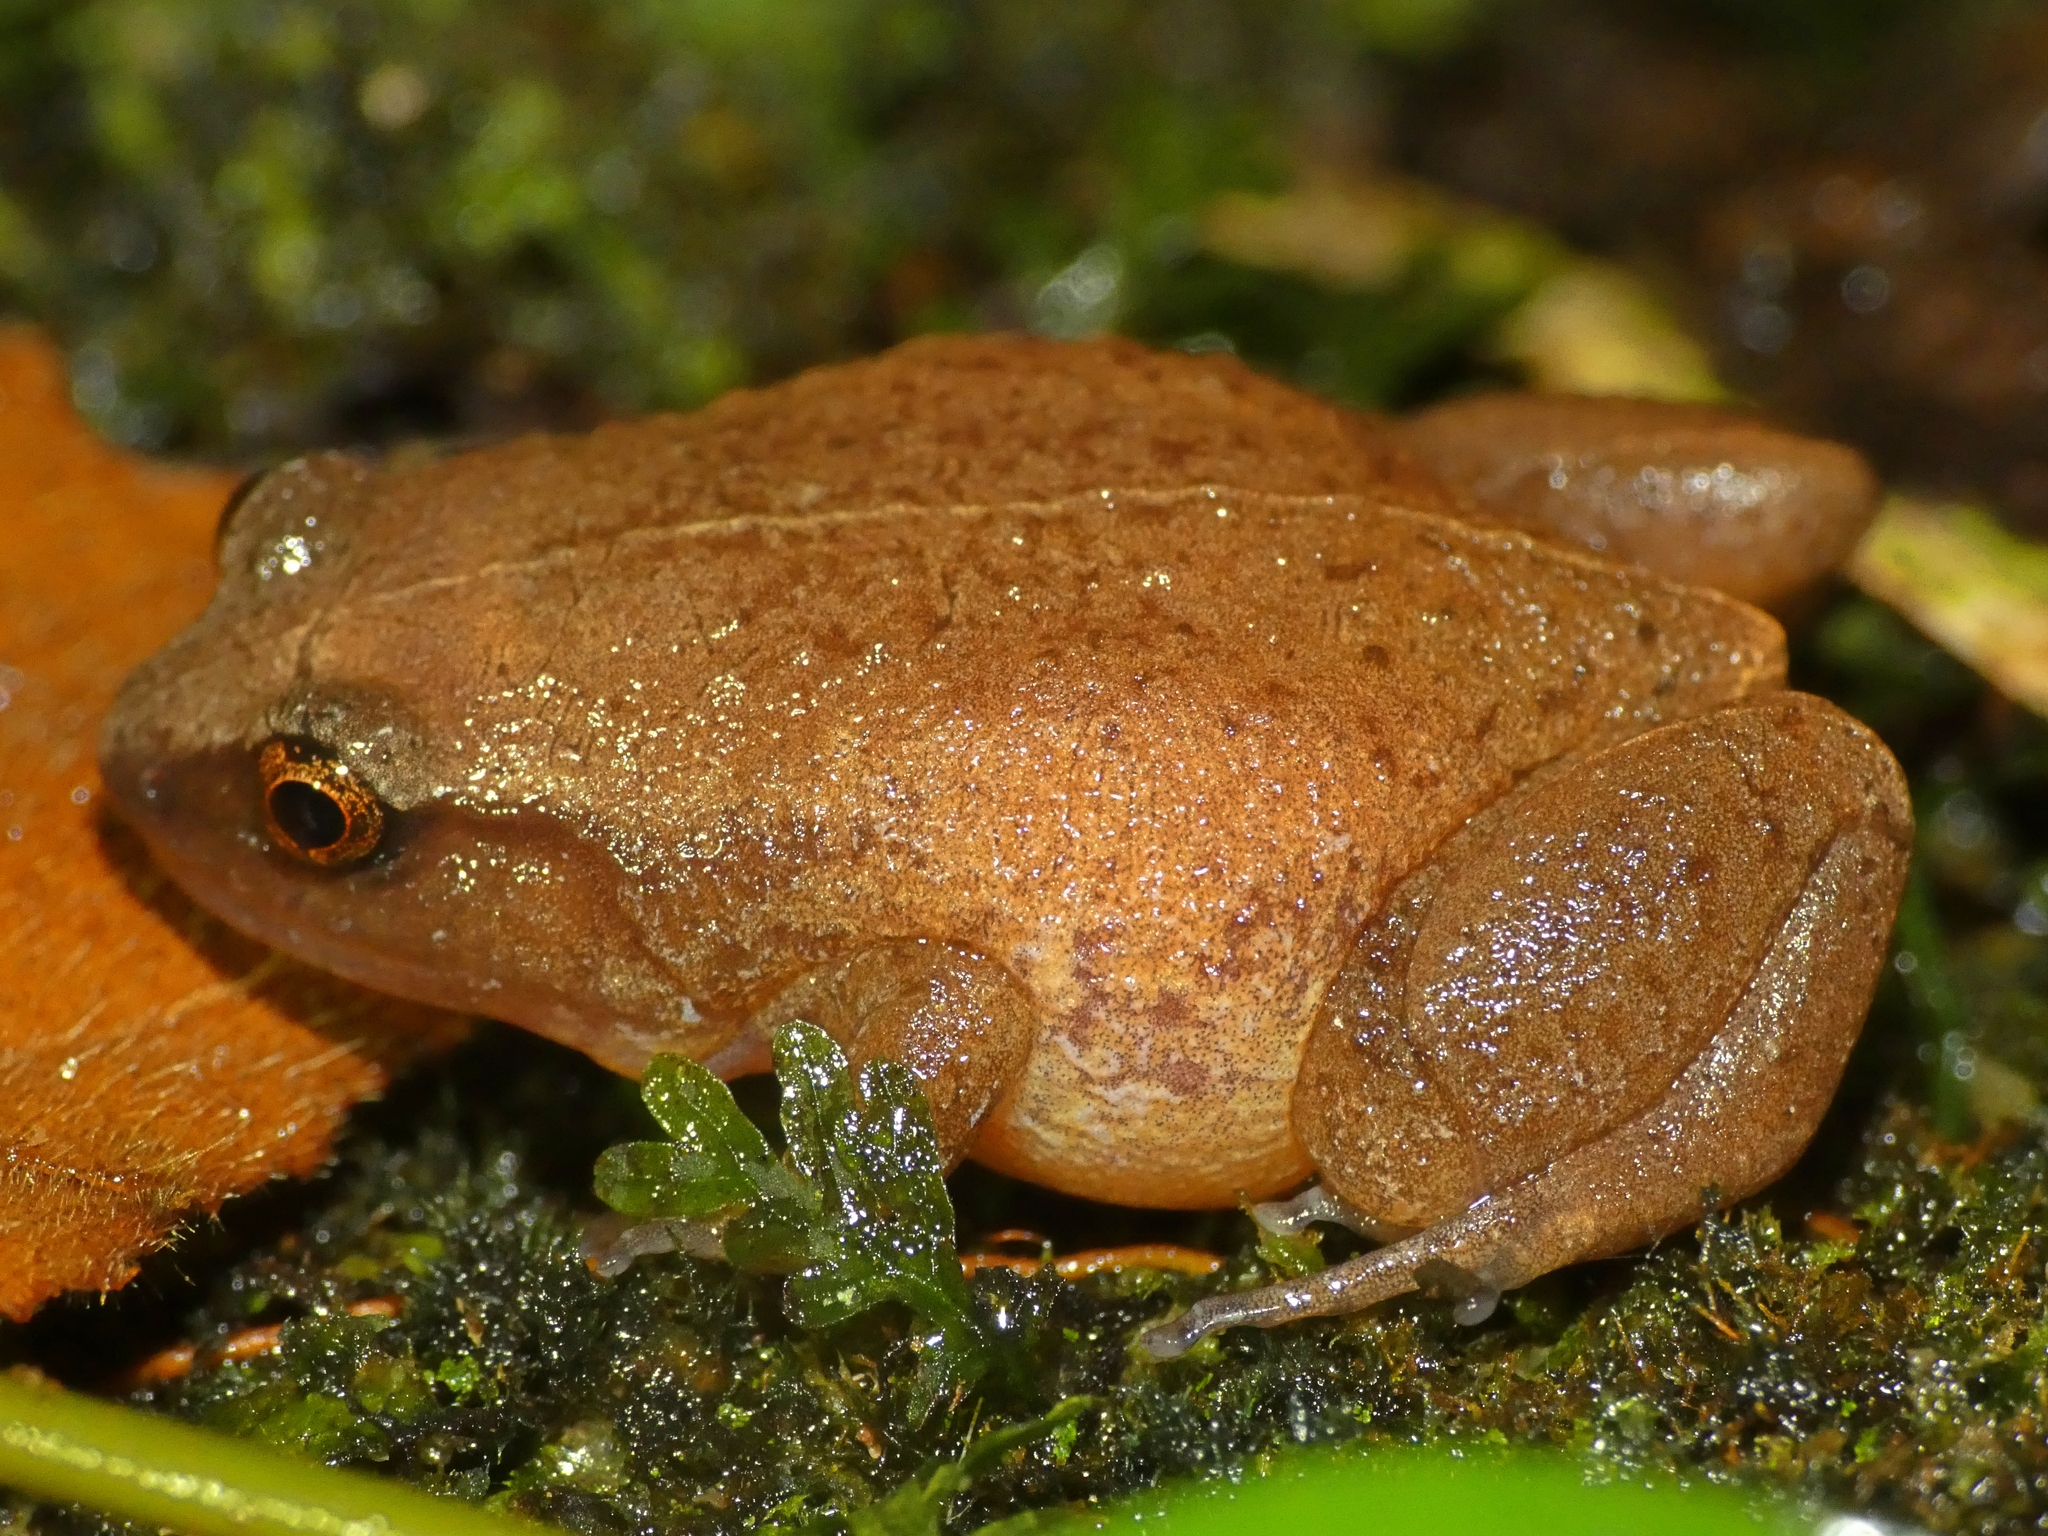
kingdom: Animalia
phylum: Chordata
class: Amphibia
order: Anura
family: Microhylidae
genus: Austrochaperina
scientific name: Austrochaperina fryi
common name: Fry’s frog
